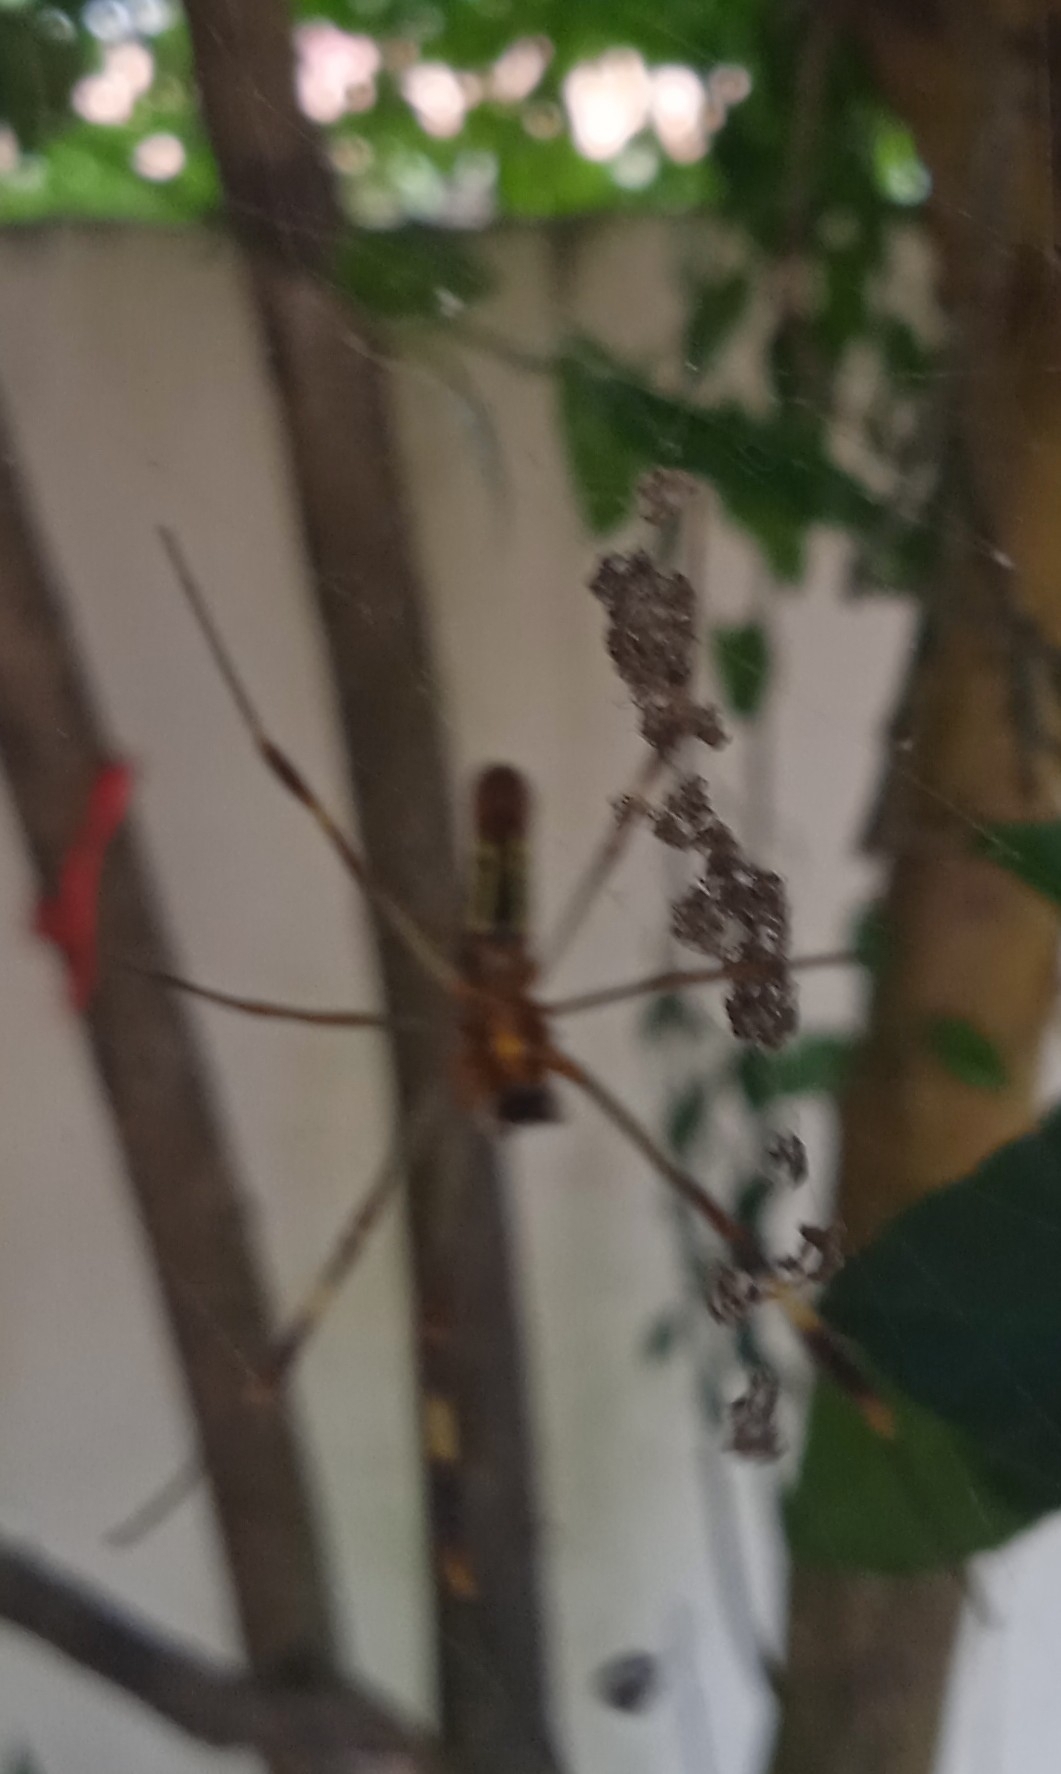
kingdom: Animalia
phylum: Arthropoda
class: Arachnida
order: Araneae
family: Araneidae
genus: Trichonephila
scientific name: Trichonephila clavipes
